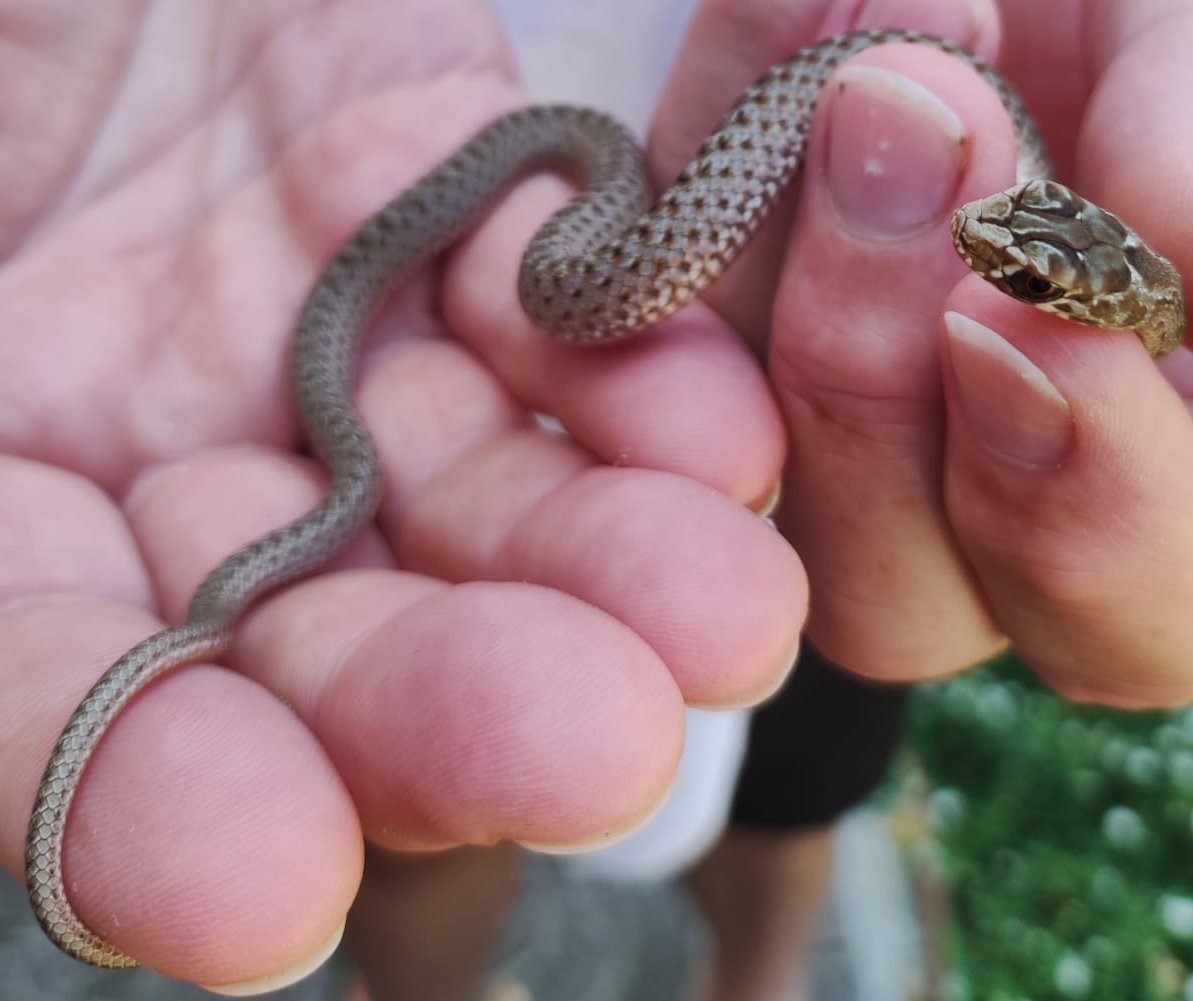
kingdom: Animalia
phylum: Chordata
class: Squamata
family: Psammophiidae
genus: Malpolon
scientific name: Malpolon monspessulanus
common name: Montpellier snake
